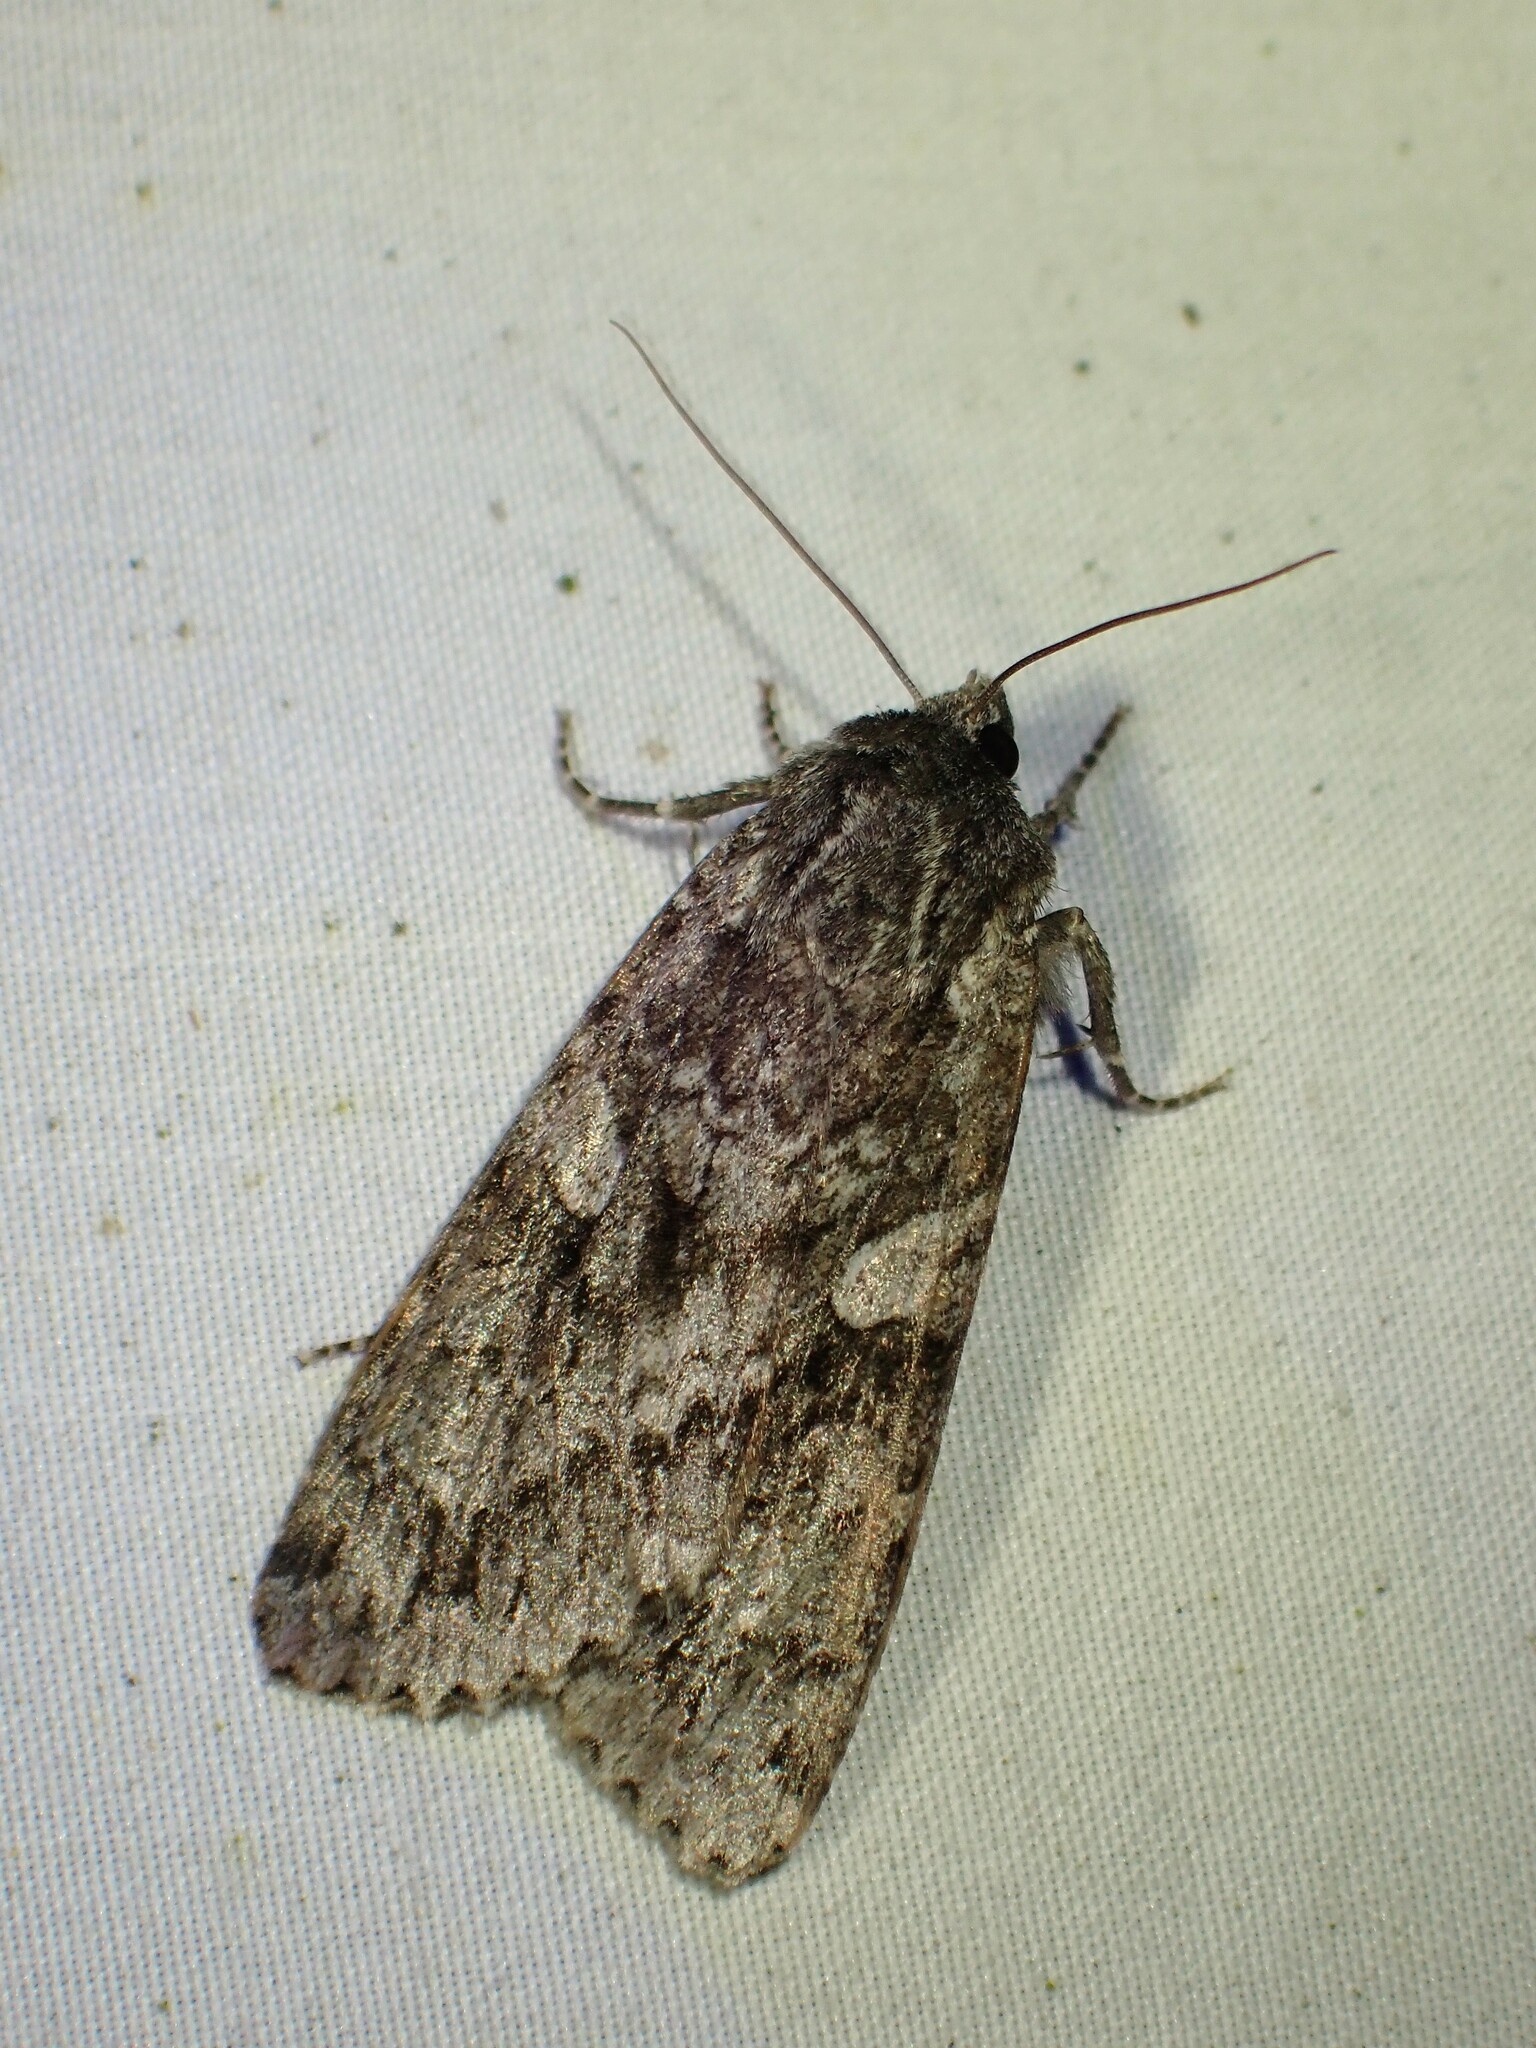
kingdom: Animalia
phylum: Arthropoda
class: Insecta
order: Lepidoptera
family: Noctuidae
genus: Eurois
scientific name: Eurois occulta
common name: Great brocade
